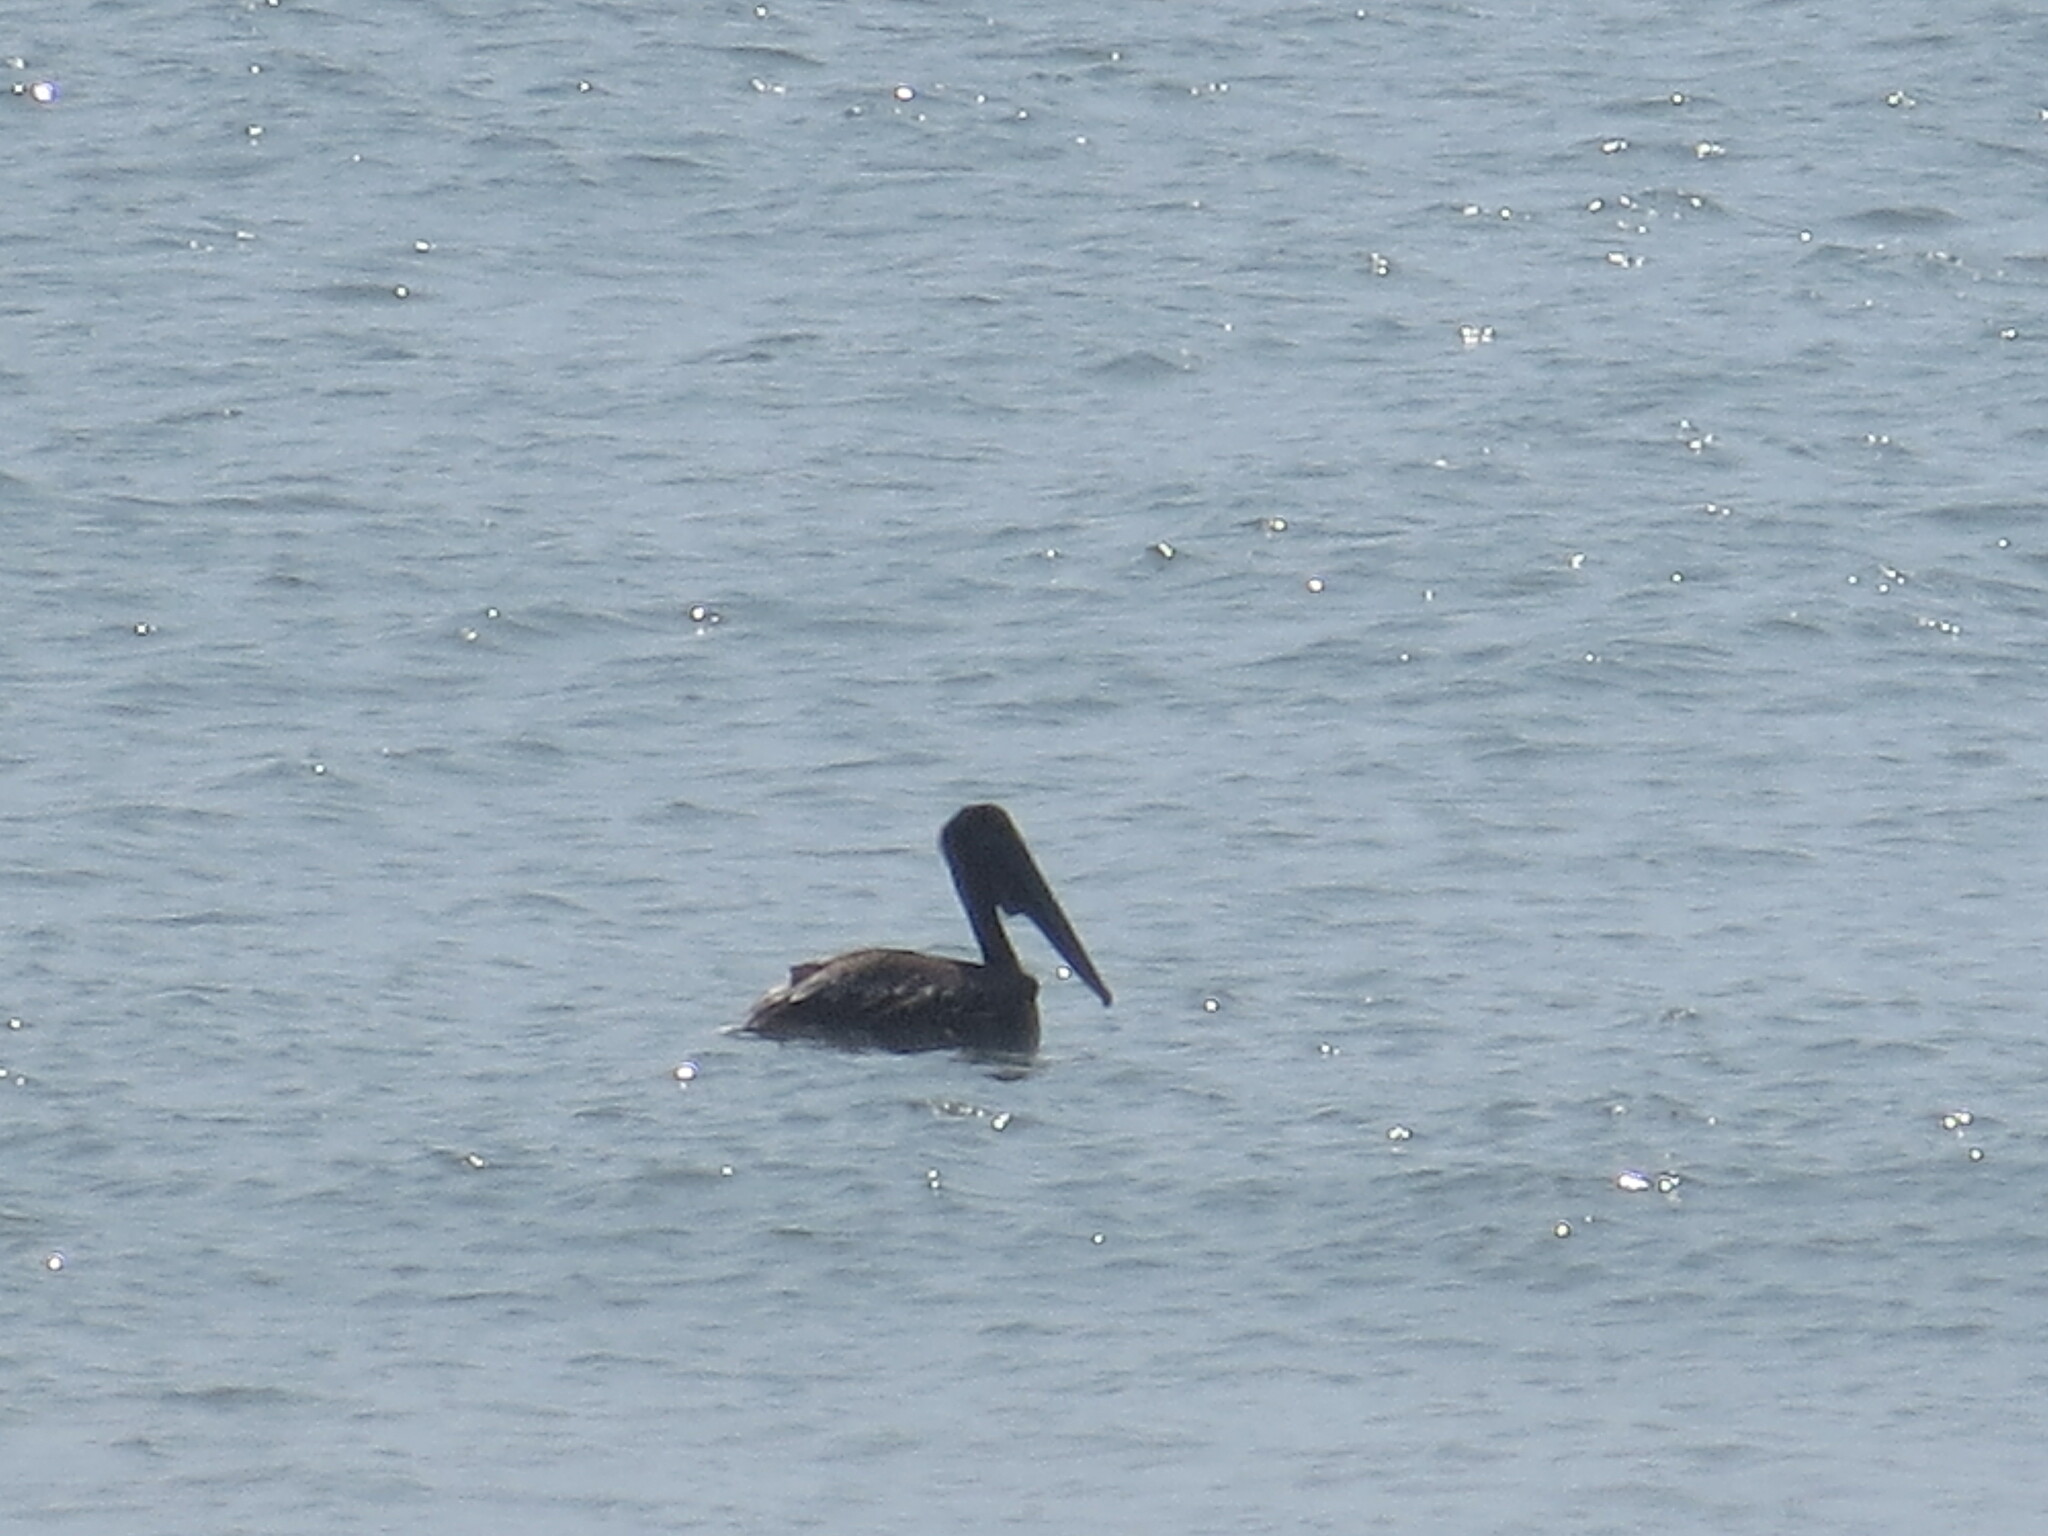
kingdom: Animalia
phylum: Chordata
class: Aves
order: Pelecaniformes
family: Pelecanidae
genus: Pelecanus
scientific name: Pelecanus occidentalis
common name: Brown pelican
